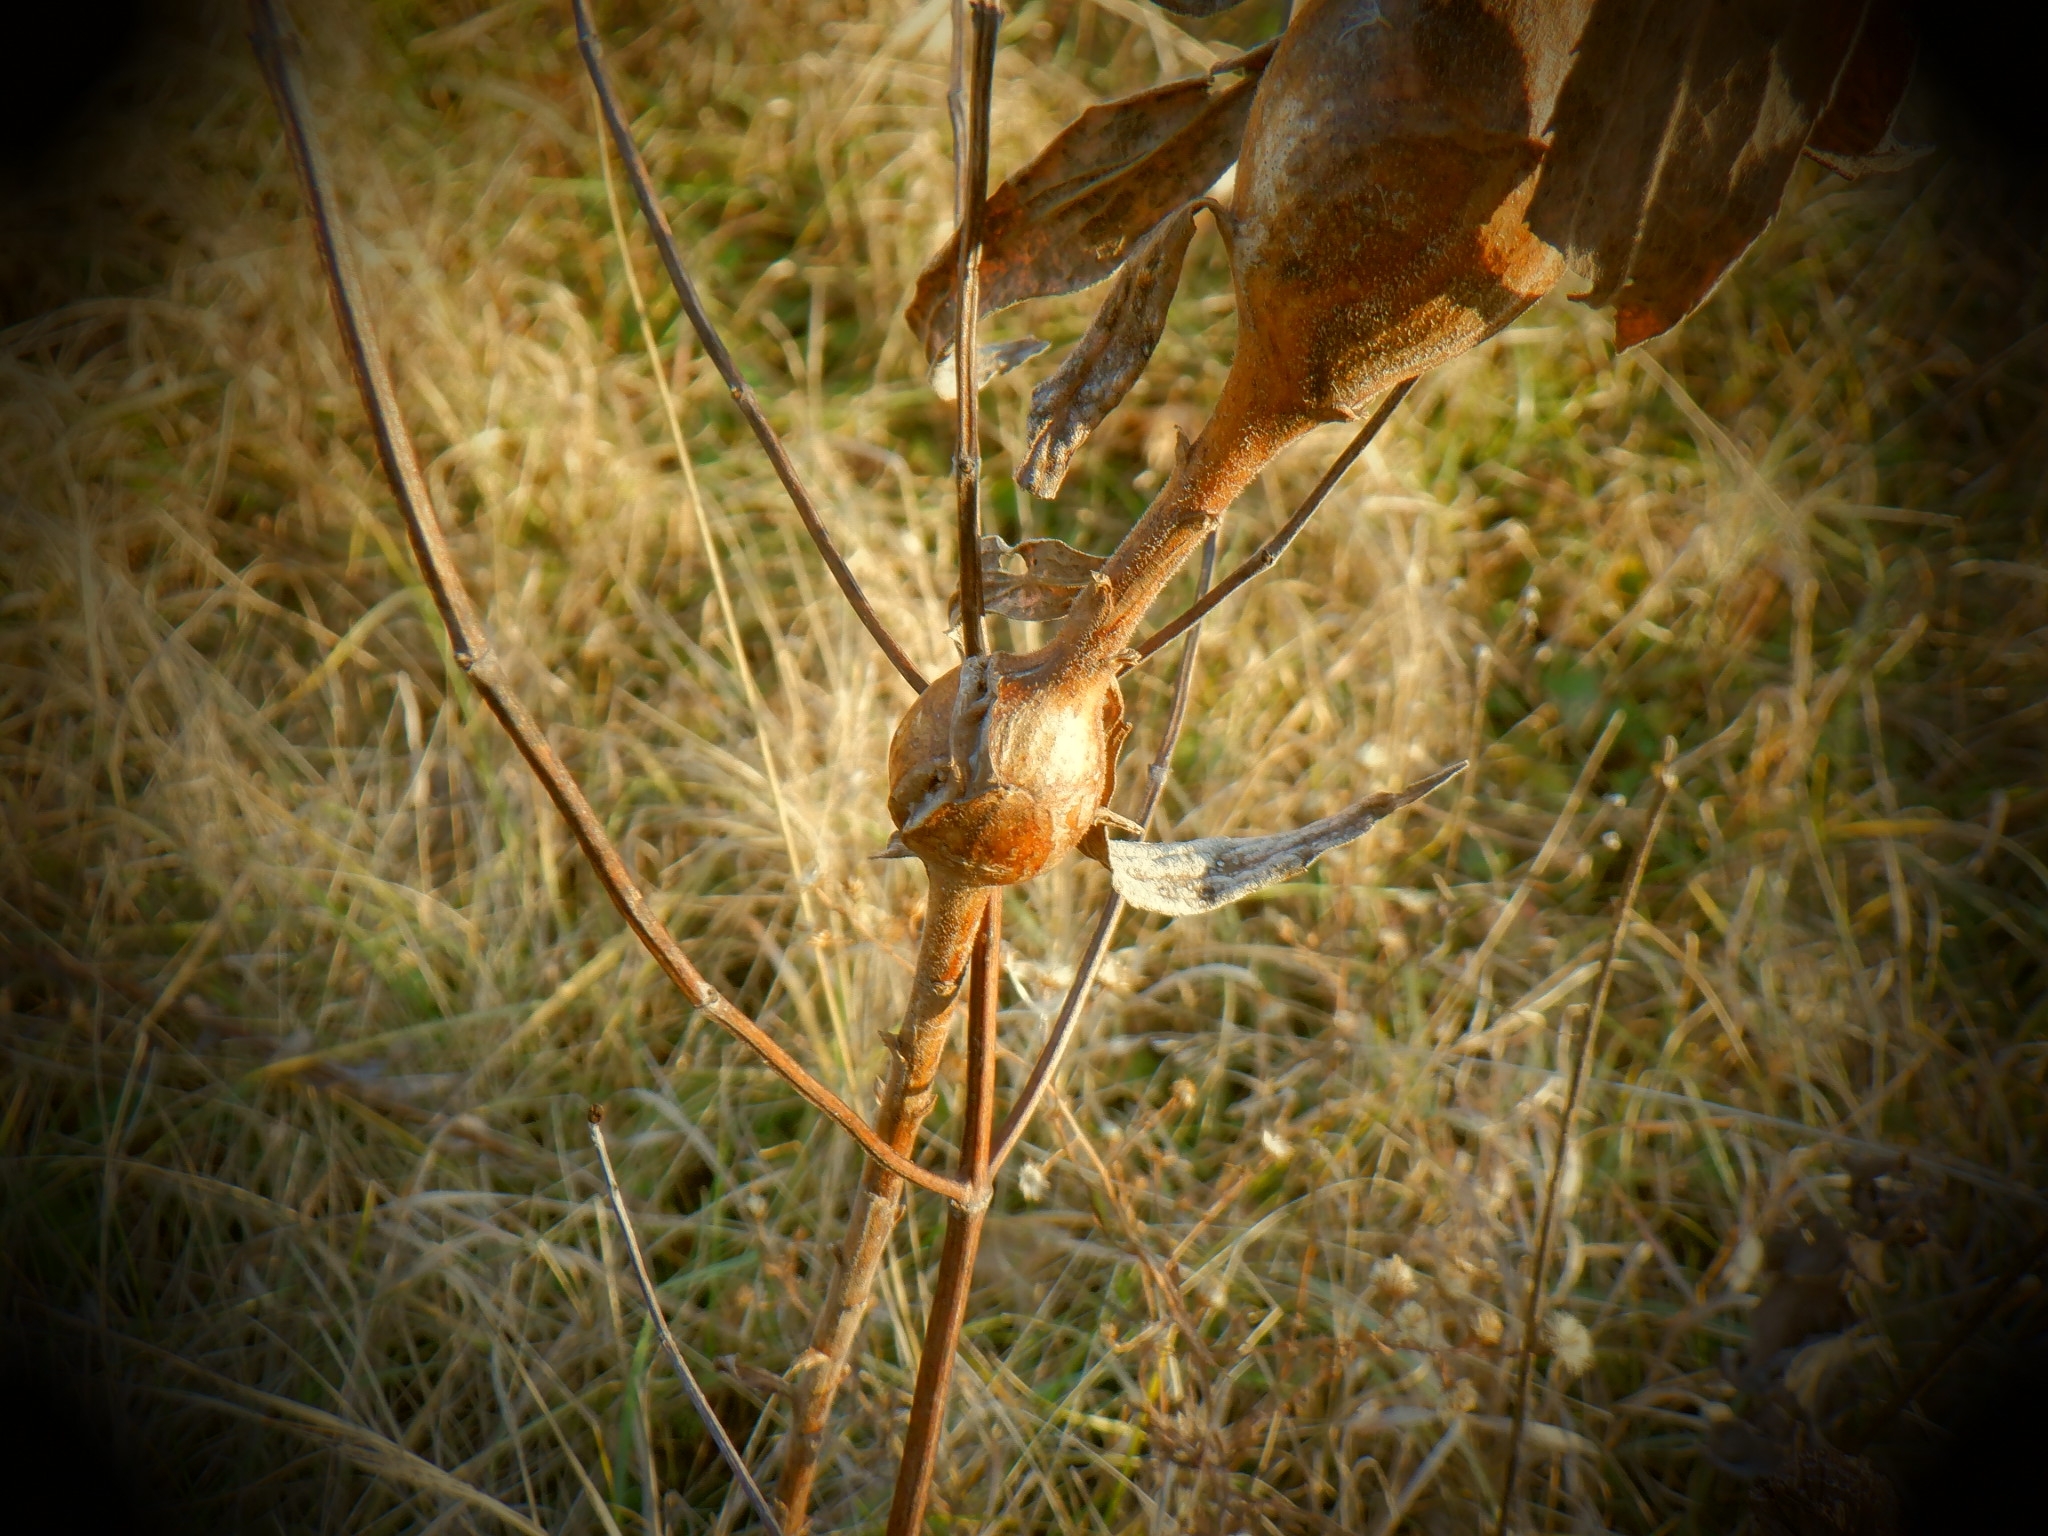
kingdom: Animalia
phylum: Arthropoda
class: Insecta
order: Diptera
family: Tephritidae
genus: Eurosta
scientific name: Eurosta solidaginis
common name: Goldenrod gall fly
